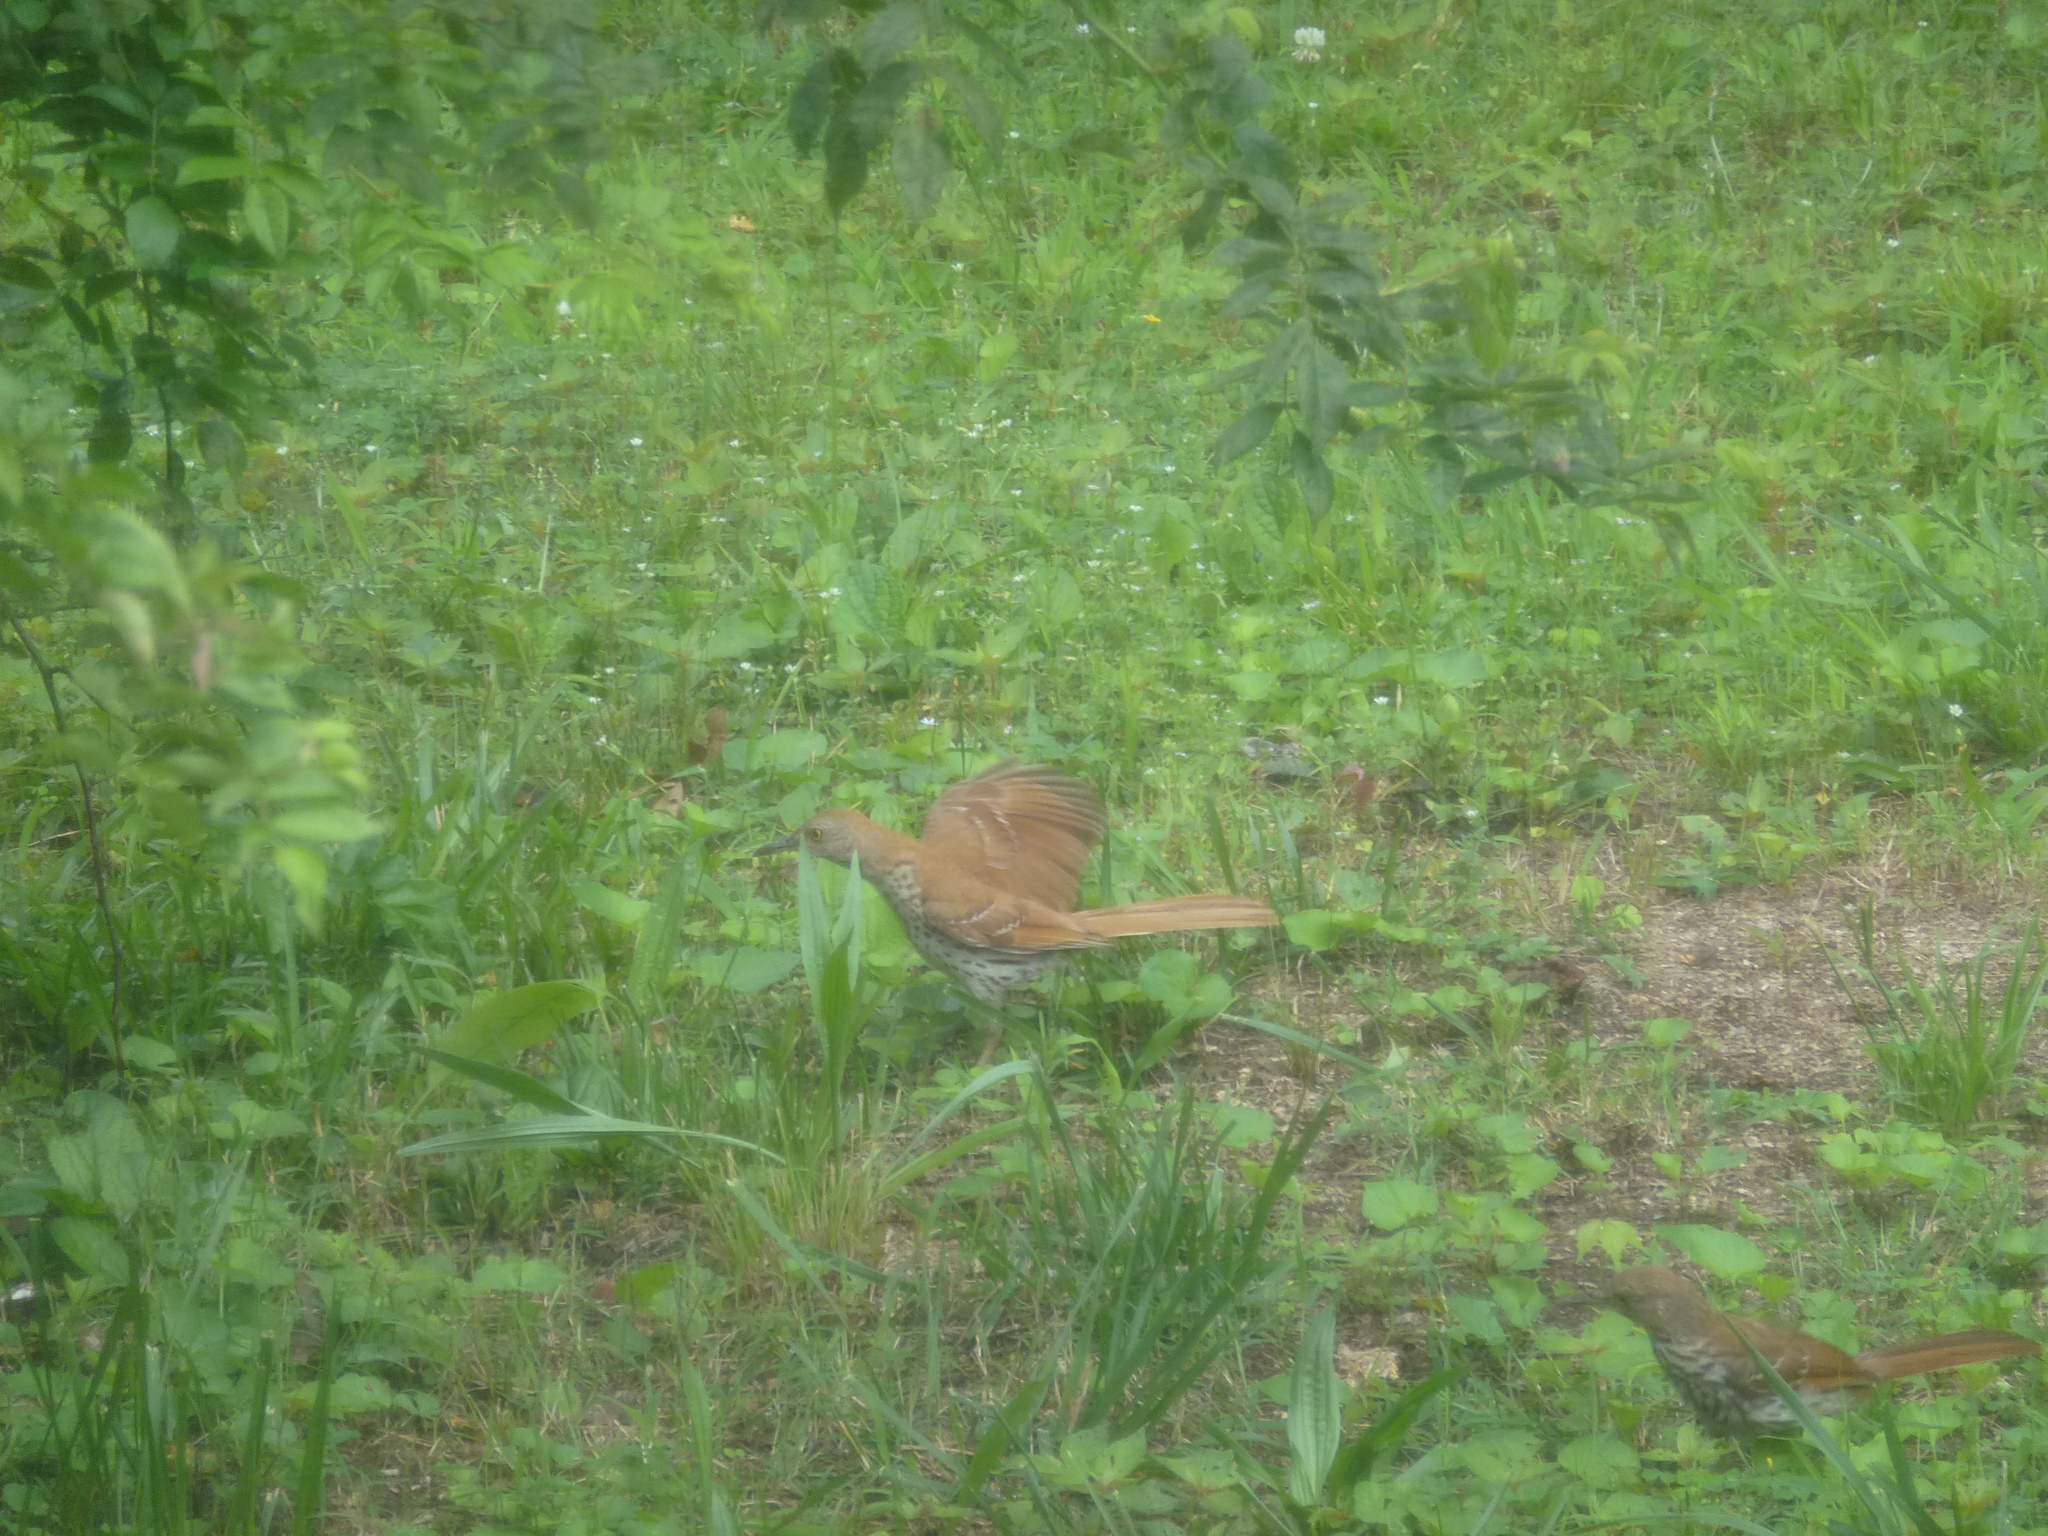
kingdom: Animalia
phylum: Chordata
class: Aves
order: Passeriformes
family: Mimidae
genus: Toxostoma
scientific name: Toxostoma rufum
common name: Brown thrasher
